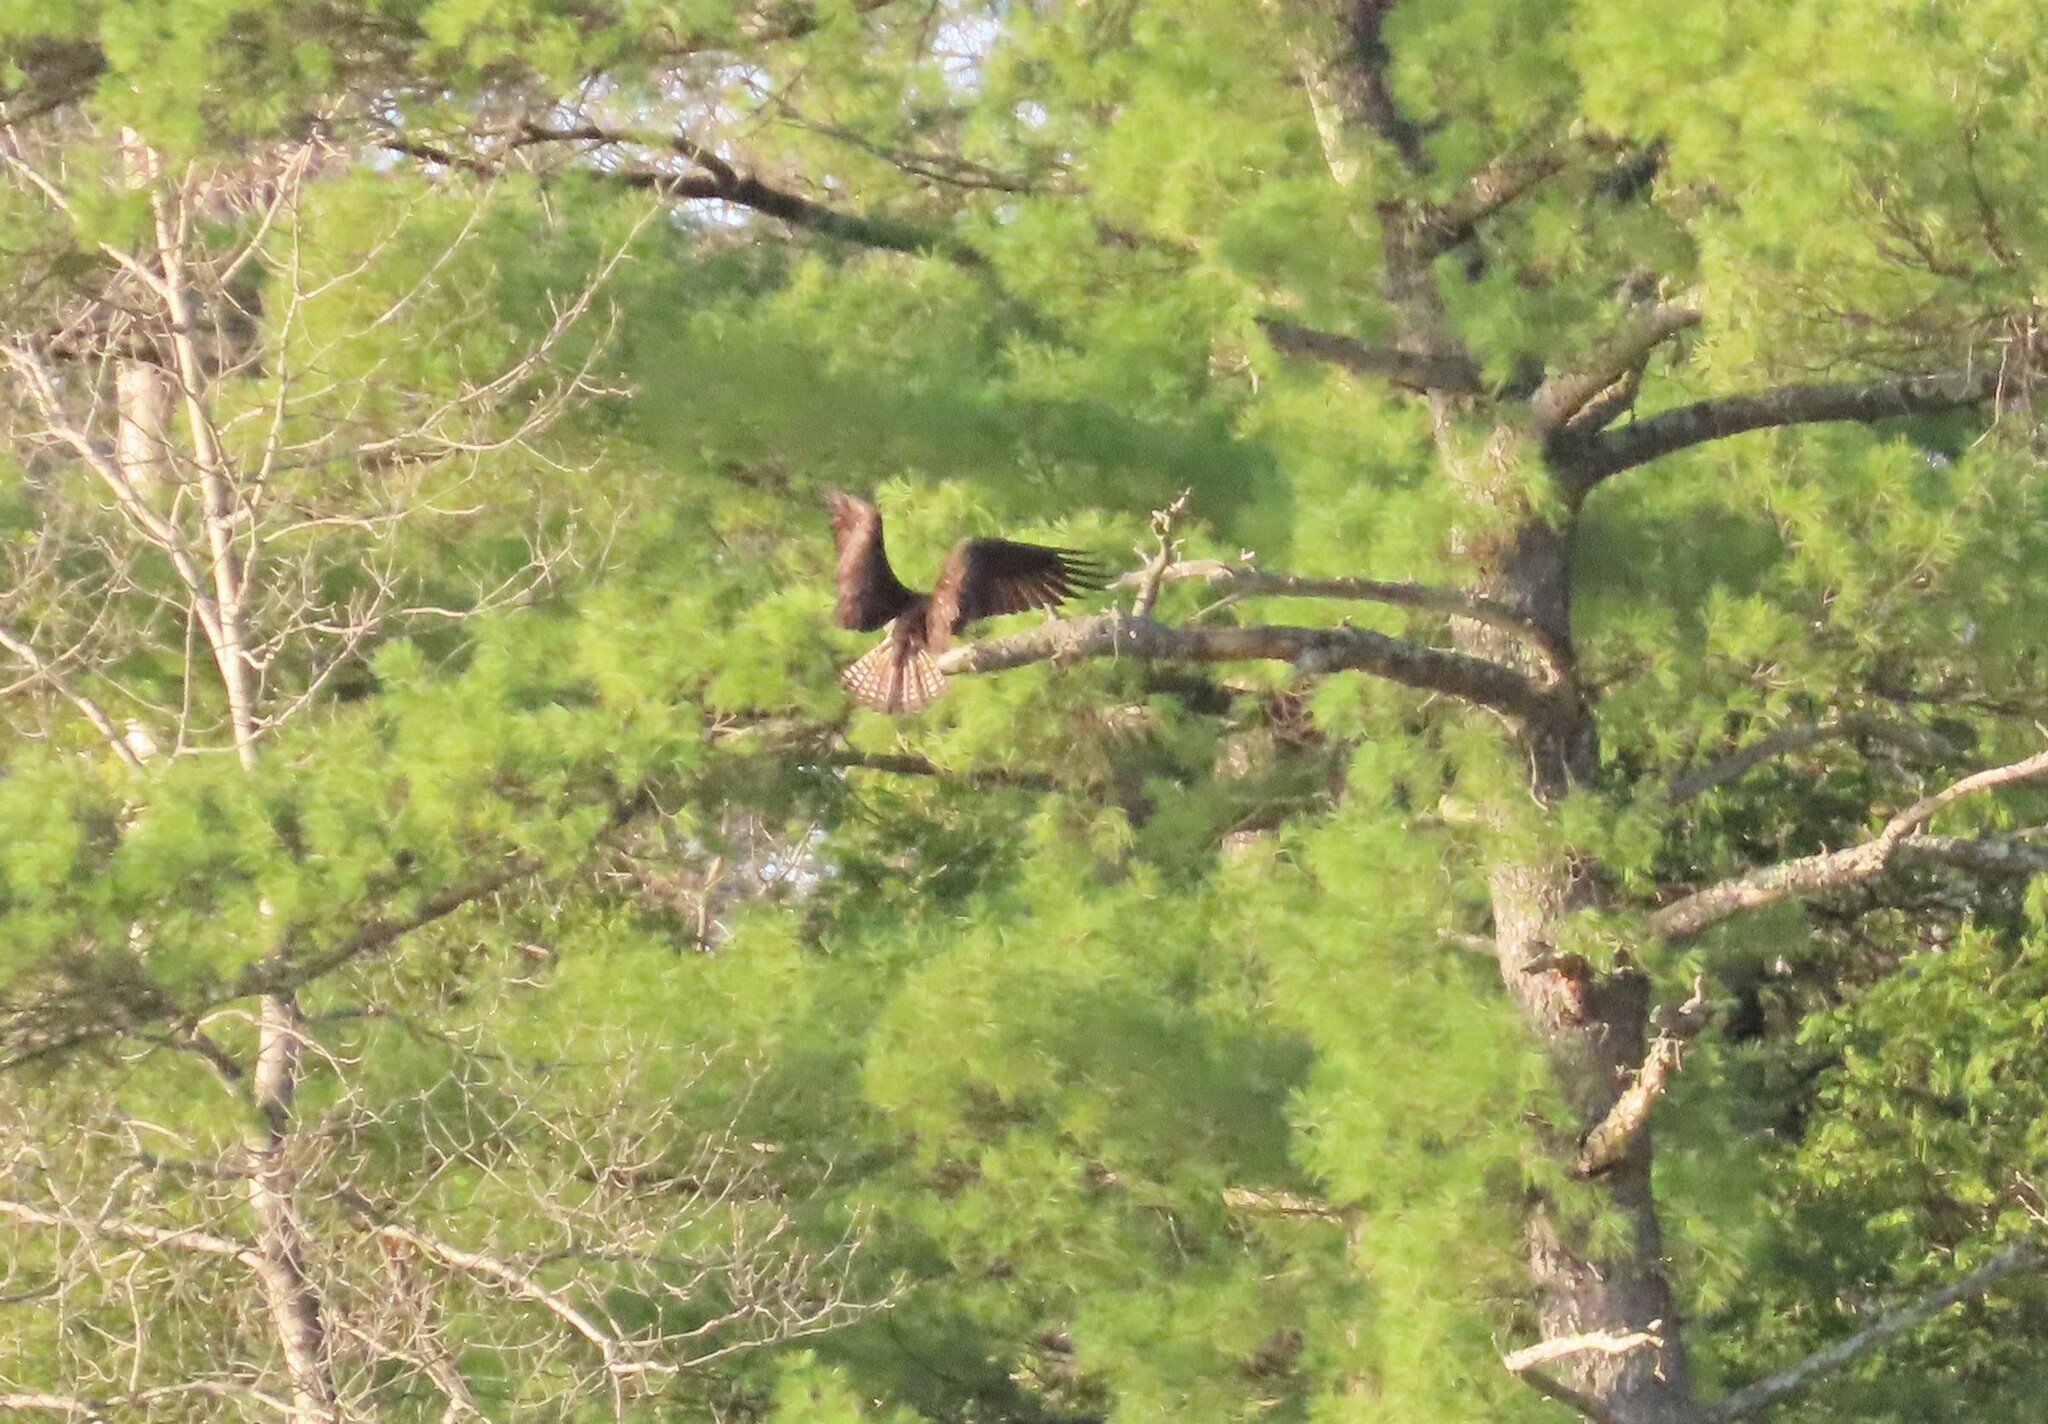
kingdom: Animalia
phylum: Chordata
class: Aves
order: Accipitriformes
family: Pandionidae
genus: Pandion
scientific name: Pandion haliaetus
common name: Osprey
